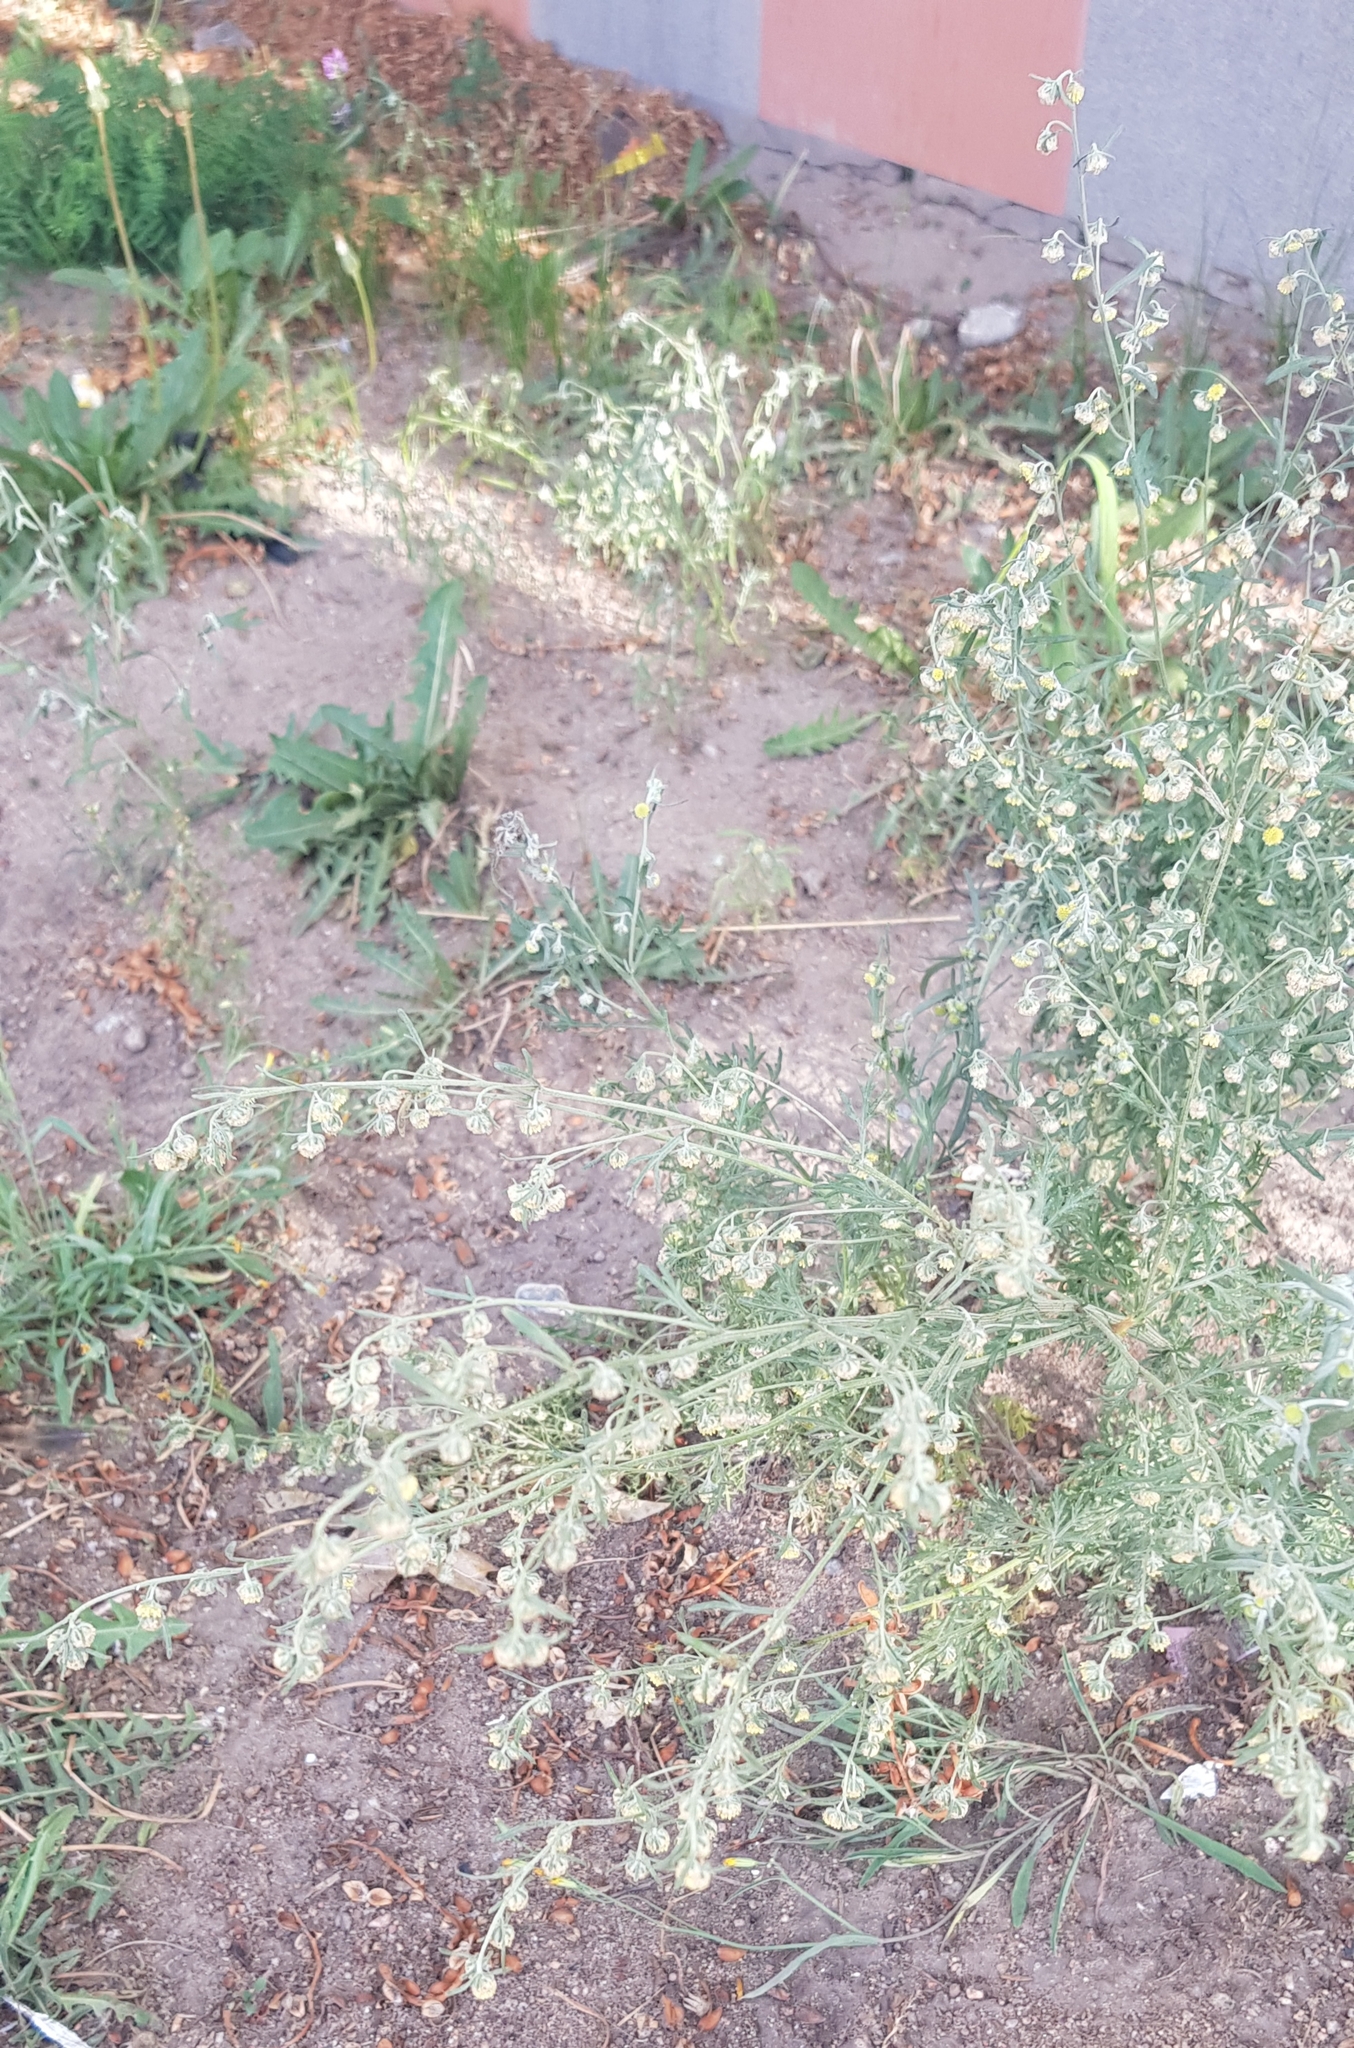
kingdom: Plantae
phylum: Tracheophyta
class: Magnoliopsida
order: Asterales
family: Asteraceae
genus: Artemisia
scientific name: Artemisia sieversiana
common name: Sieversian wormwood
